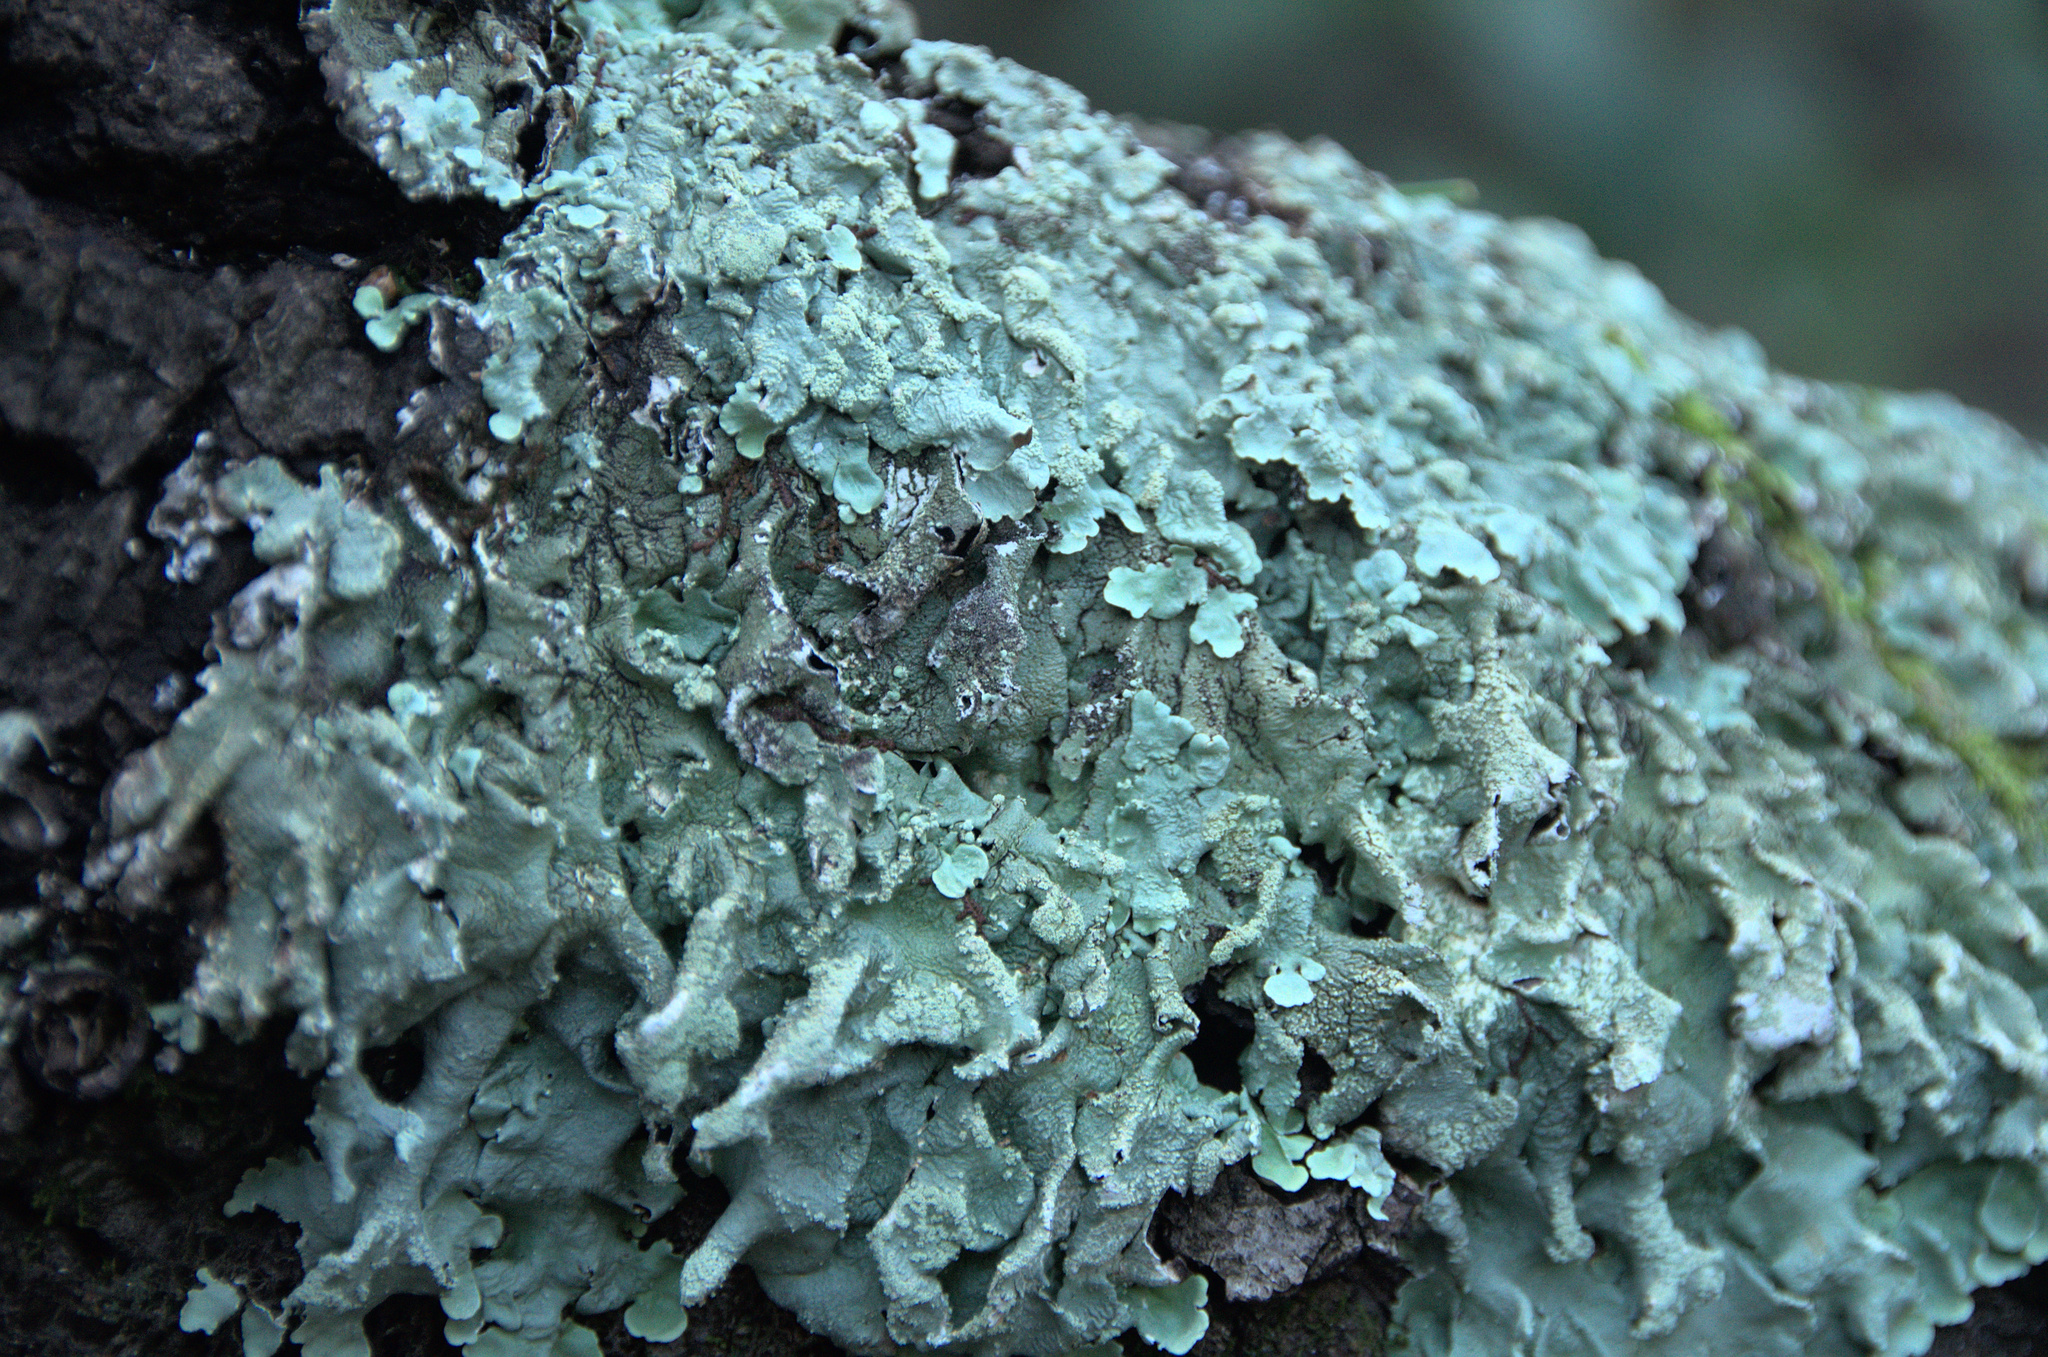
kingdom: Fungi
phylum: Ascomycota
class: Lecanoromycetes
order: Lecanorales
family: Parmeliaceae
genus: Flavoparmelia
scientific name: Flavoparmelia caperata
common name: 40-mile per hour lichen
